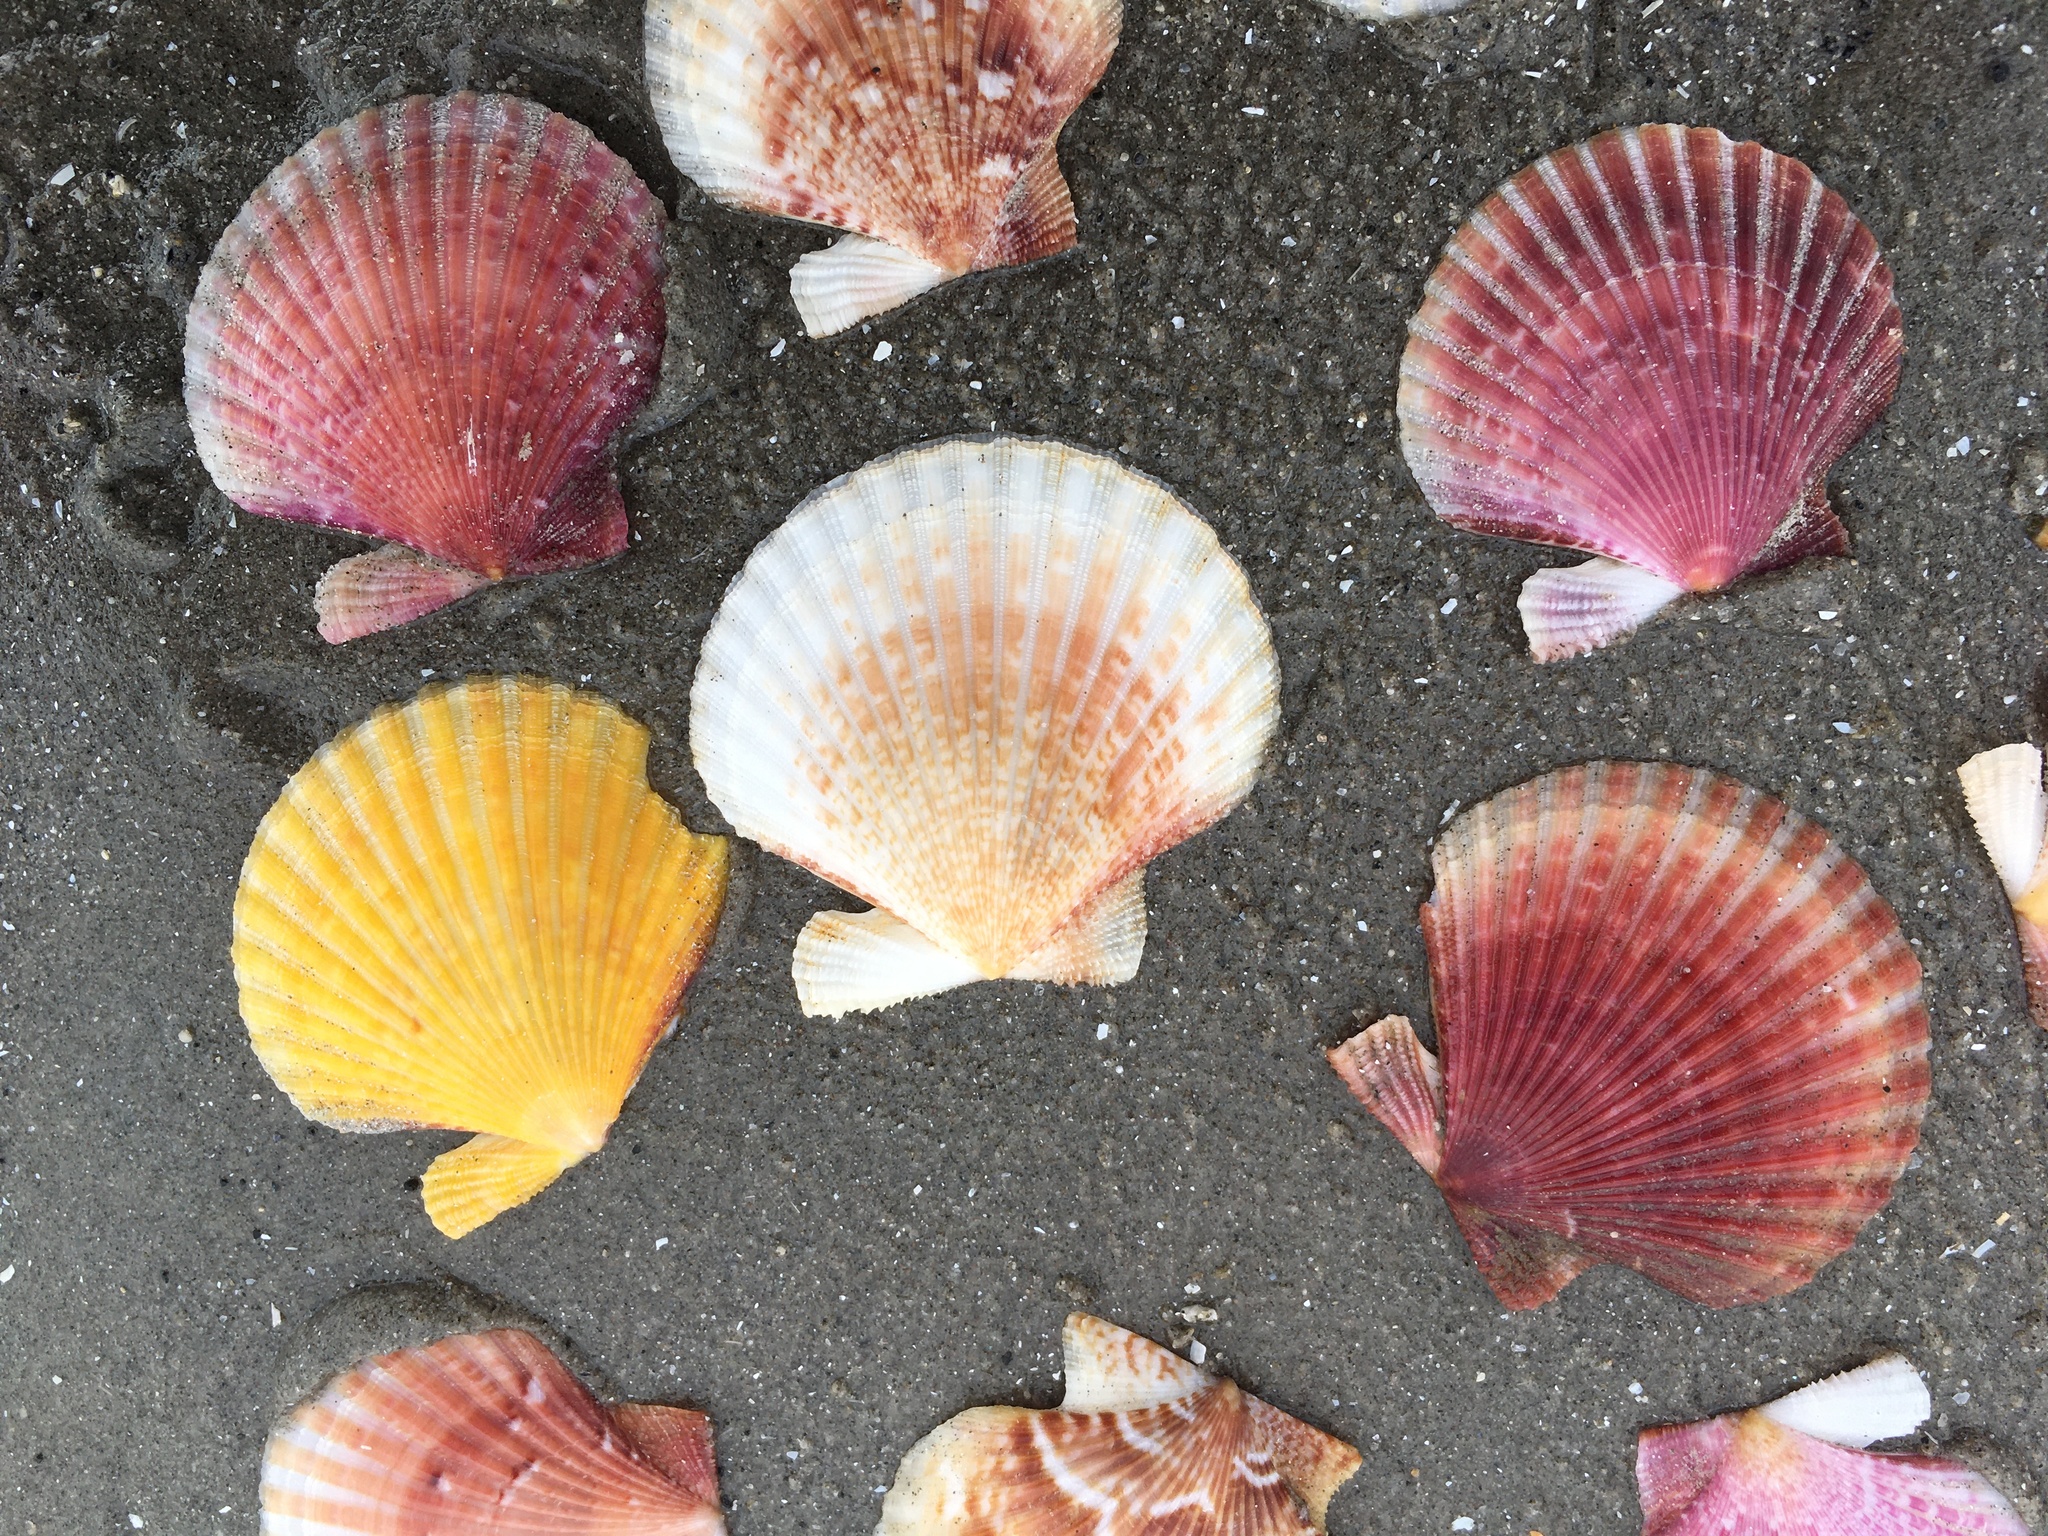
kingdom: Animalia
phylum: Mollusca
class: Bivalvia
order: Pectinida
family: Pectinidae
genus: Aequipecten
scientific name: Aequipecten opercularis
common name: Queen scallop
